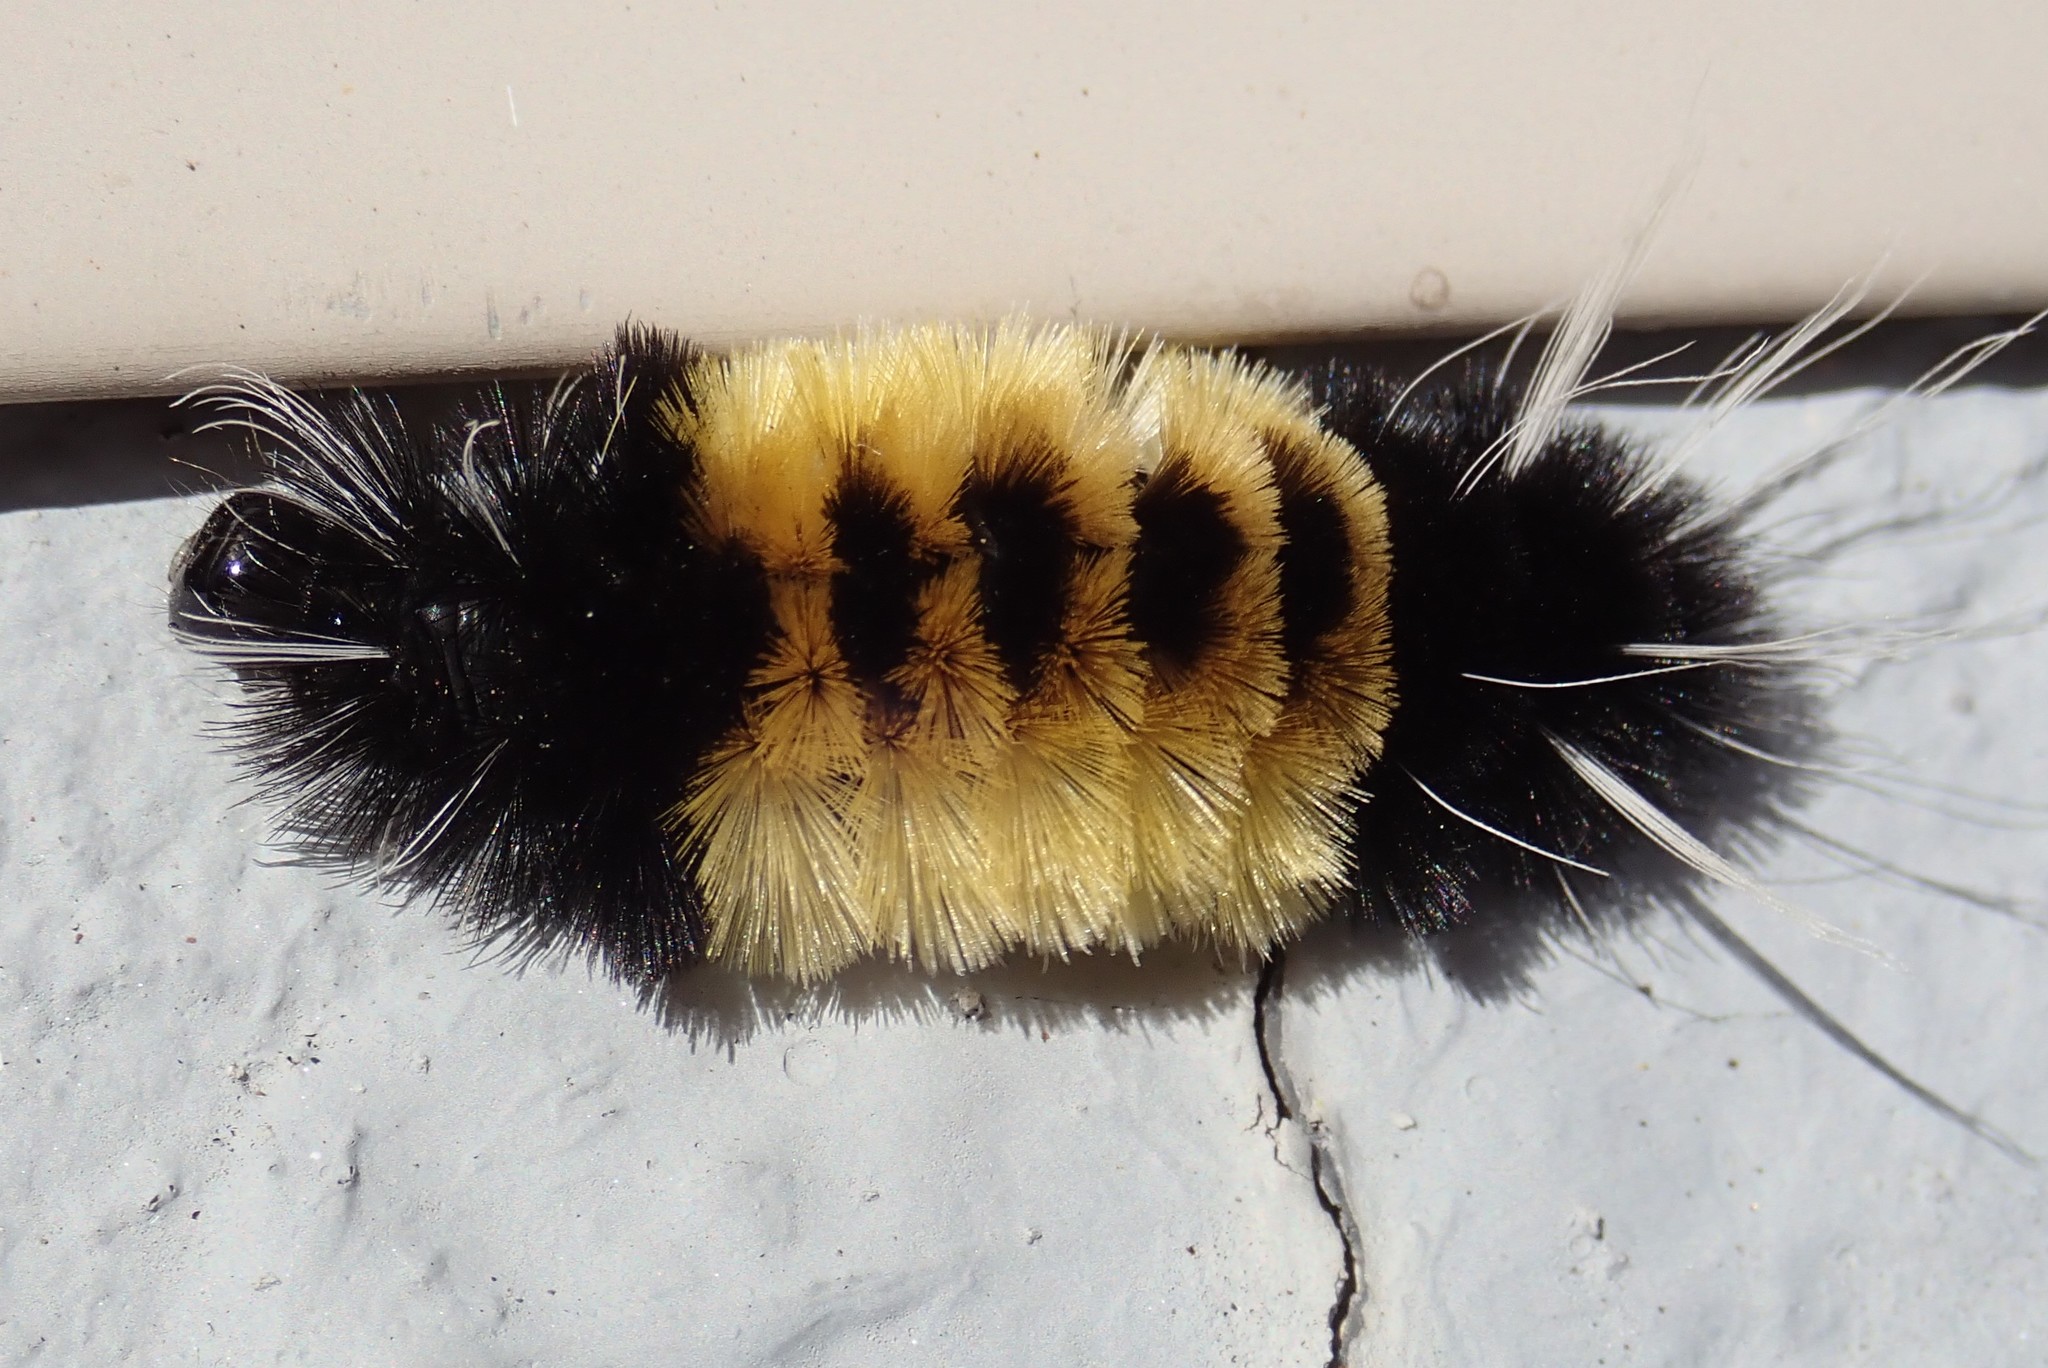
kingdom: Animalia
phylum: Arthropoda
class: Insecta
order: Lepidoptera
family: Erebidae
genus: Lophocampa
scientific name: Lophocampa maculata
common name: Spotted tussock moth
